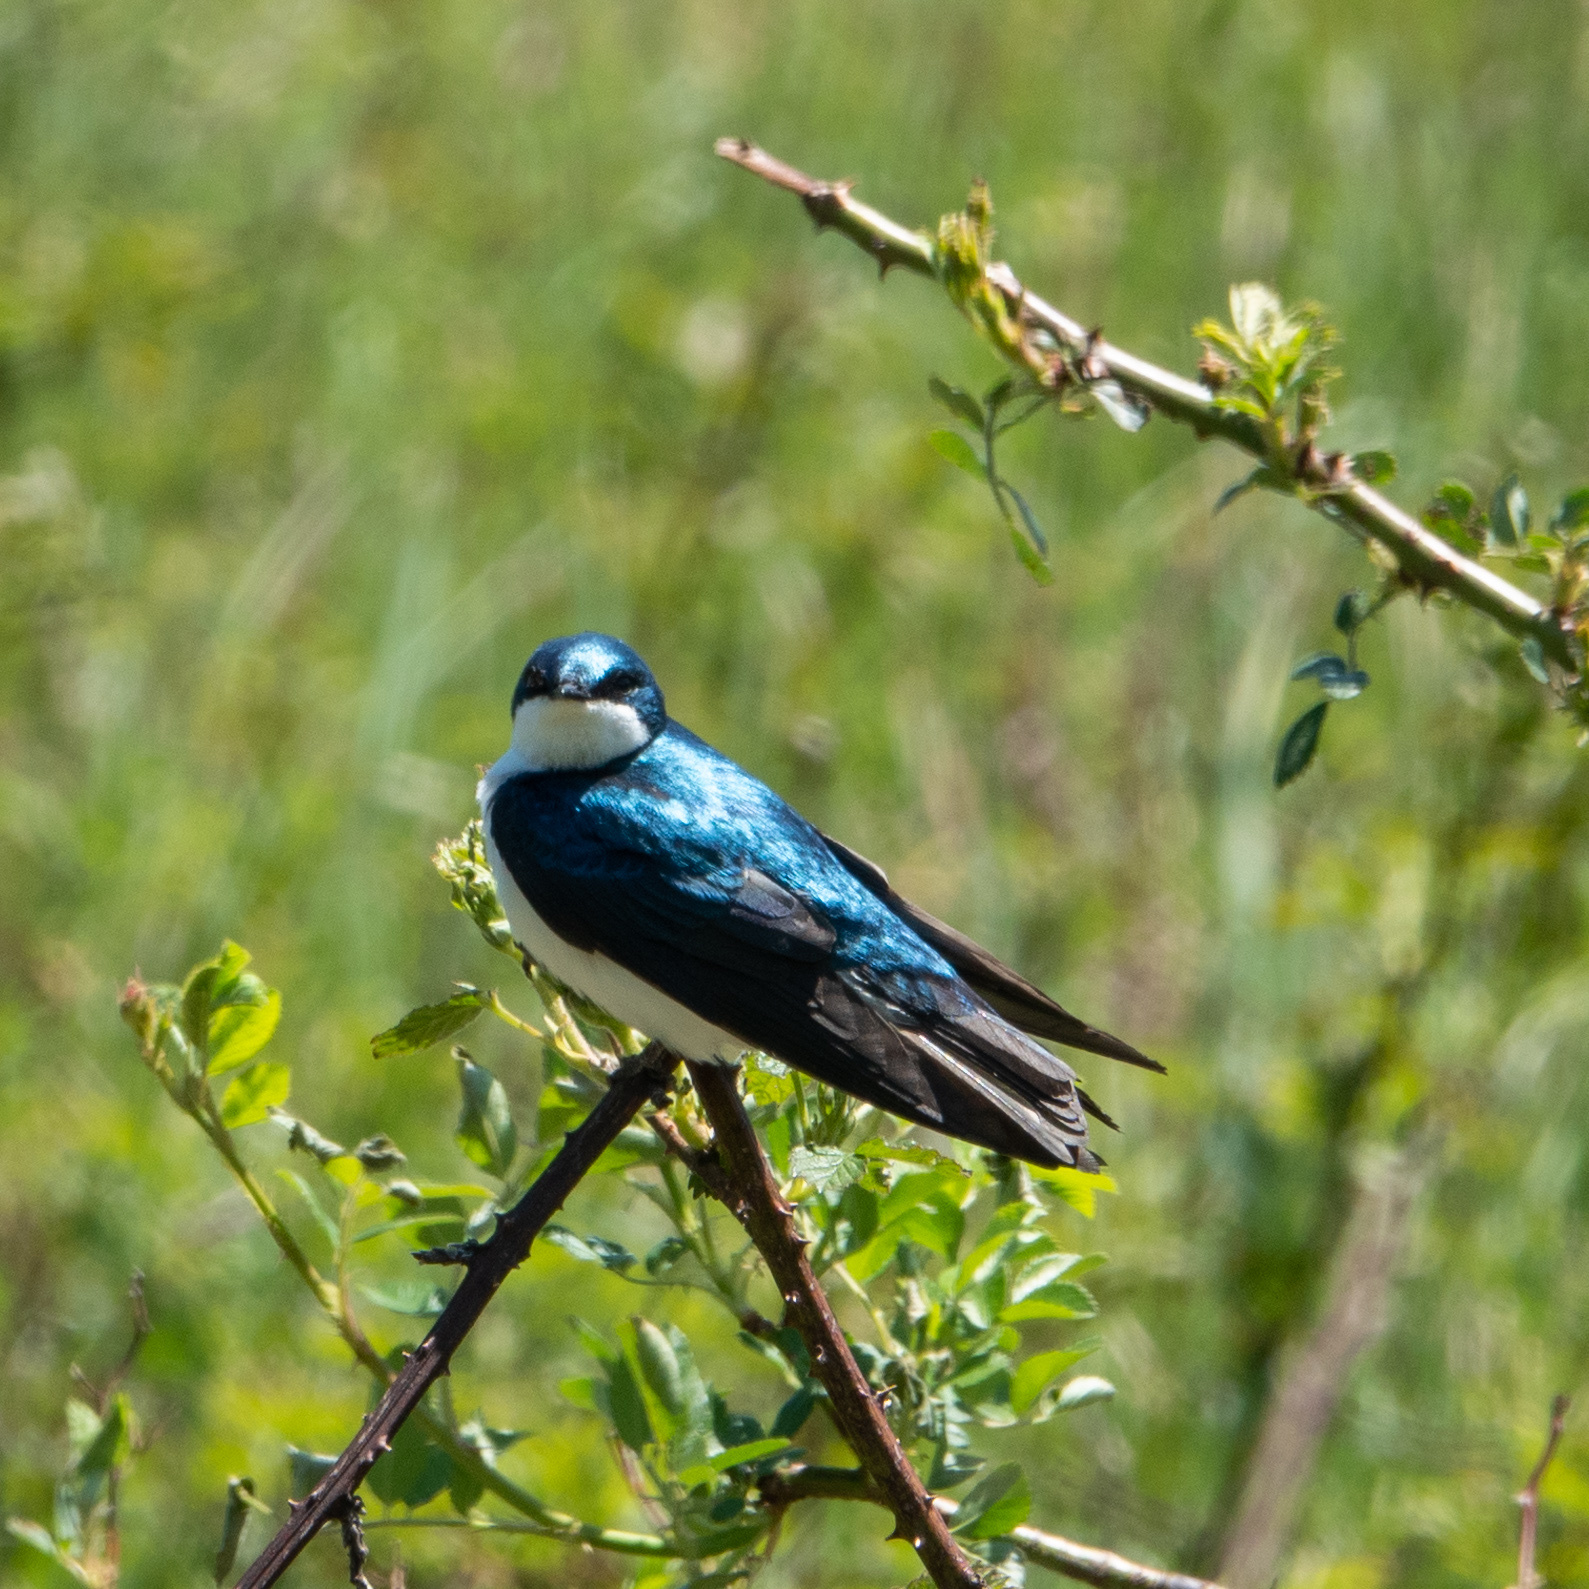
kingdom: Animalia
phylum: Chordata
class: Aves
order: Passeriformes
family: Hirundinidae
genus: Tachycineta
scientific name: Tachycineta bicolor
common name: Tree swallow
